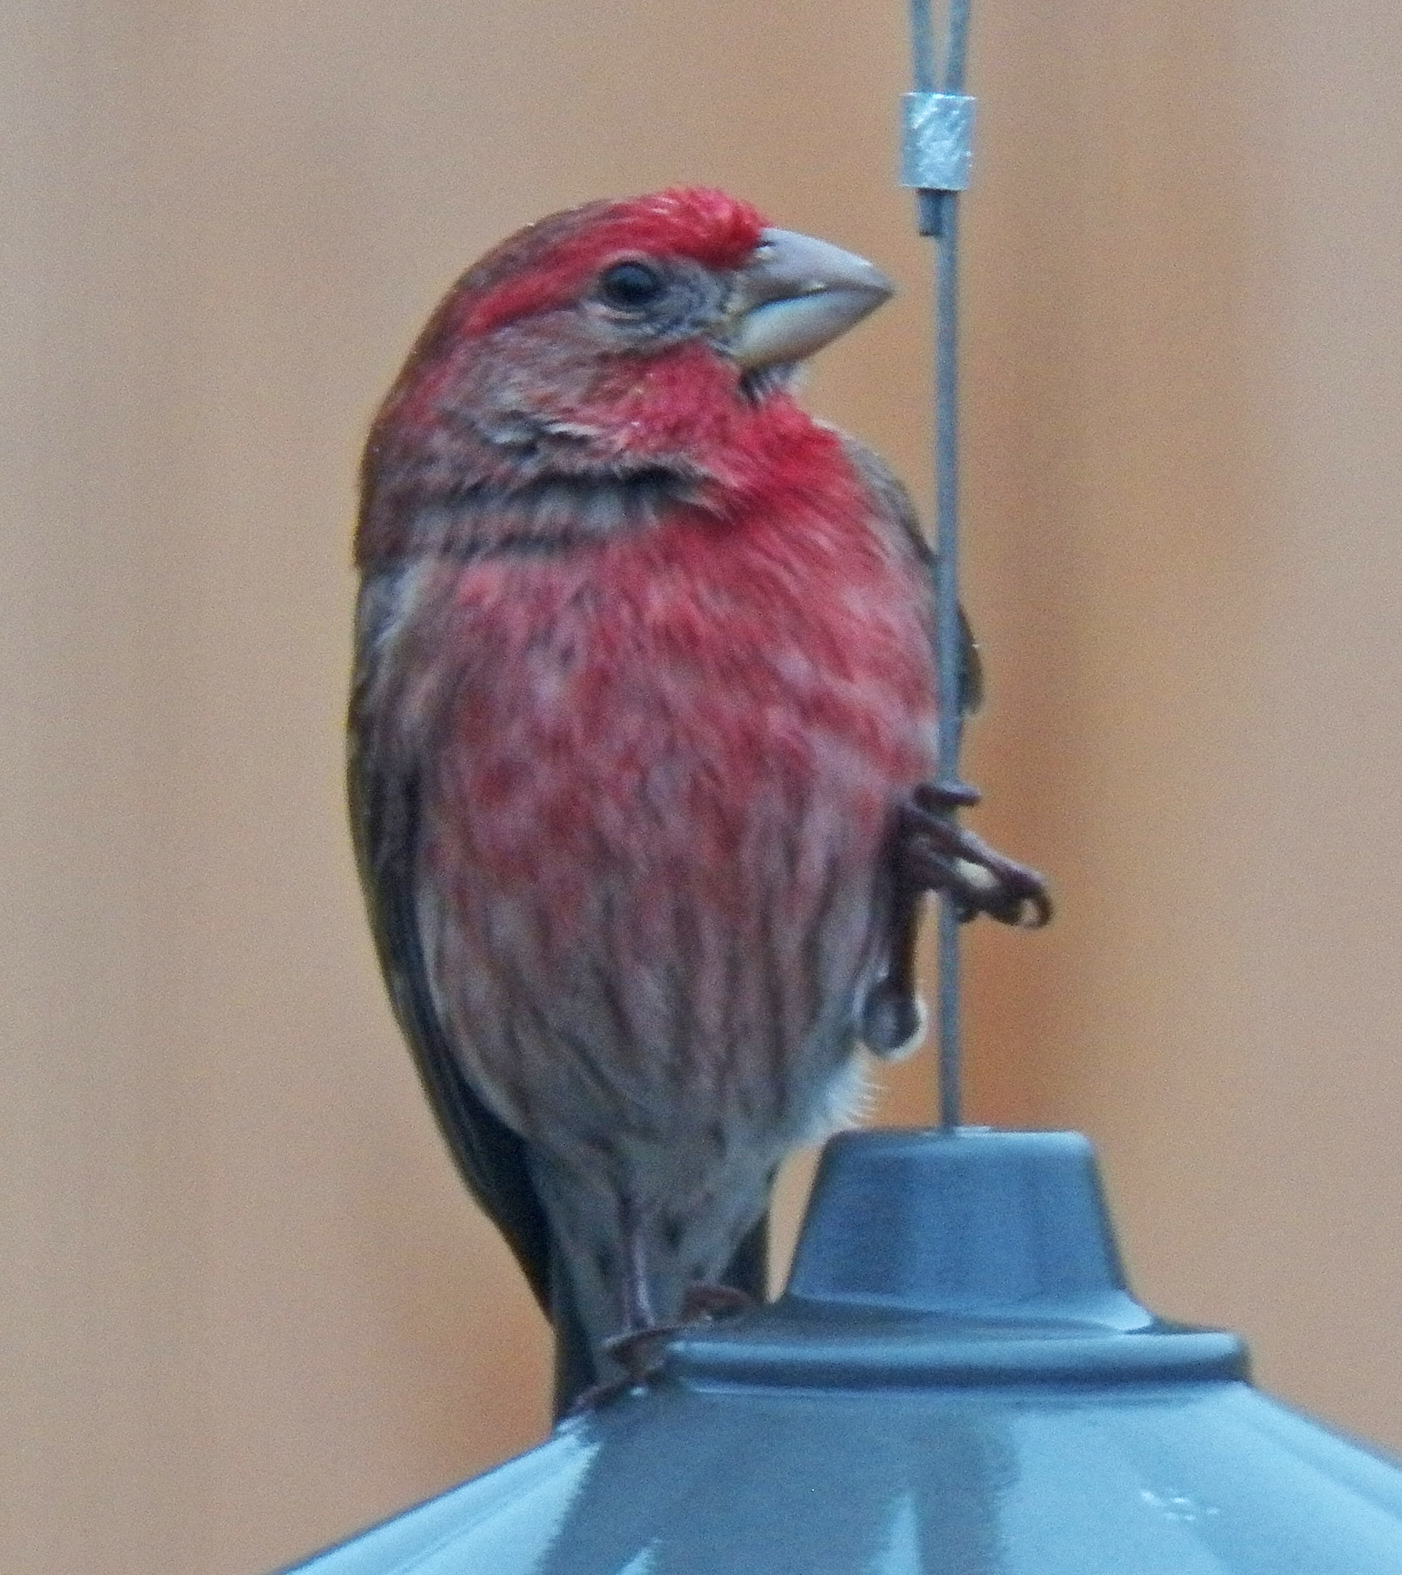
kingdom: Animalia
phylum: Chordata
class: Aves
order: Passeriformes
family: Fringillidae
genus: Haemorhous
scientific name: Haemorhous mexicanus
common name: House finch
